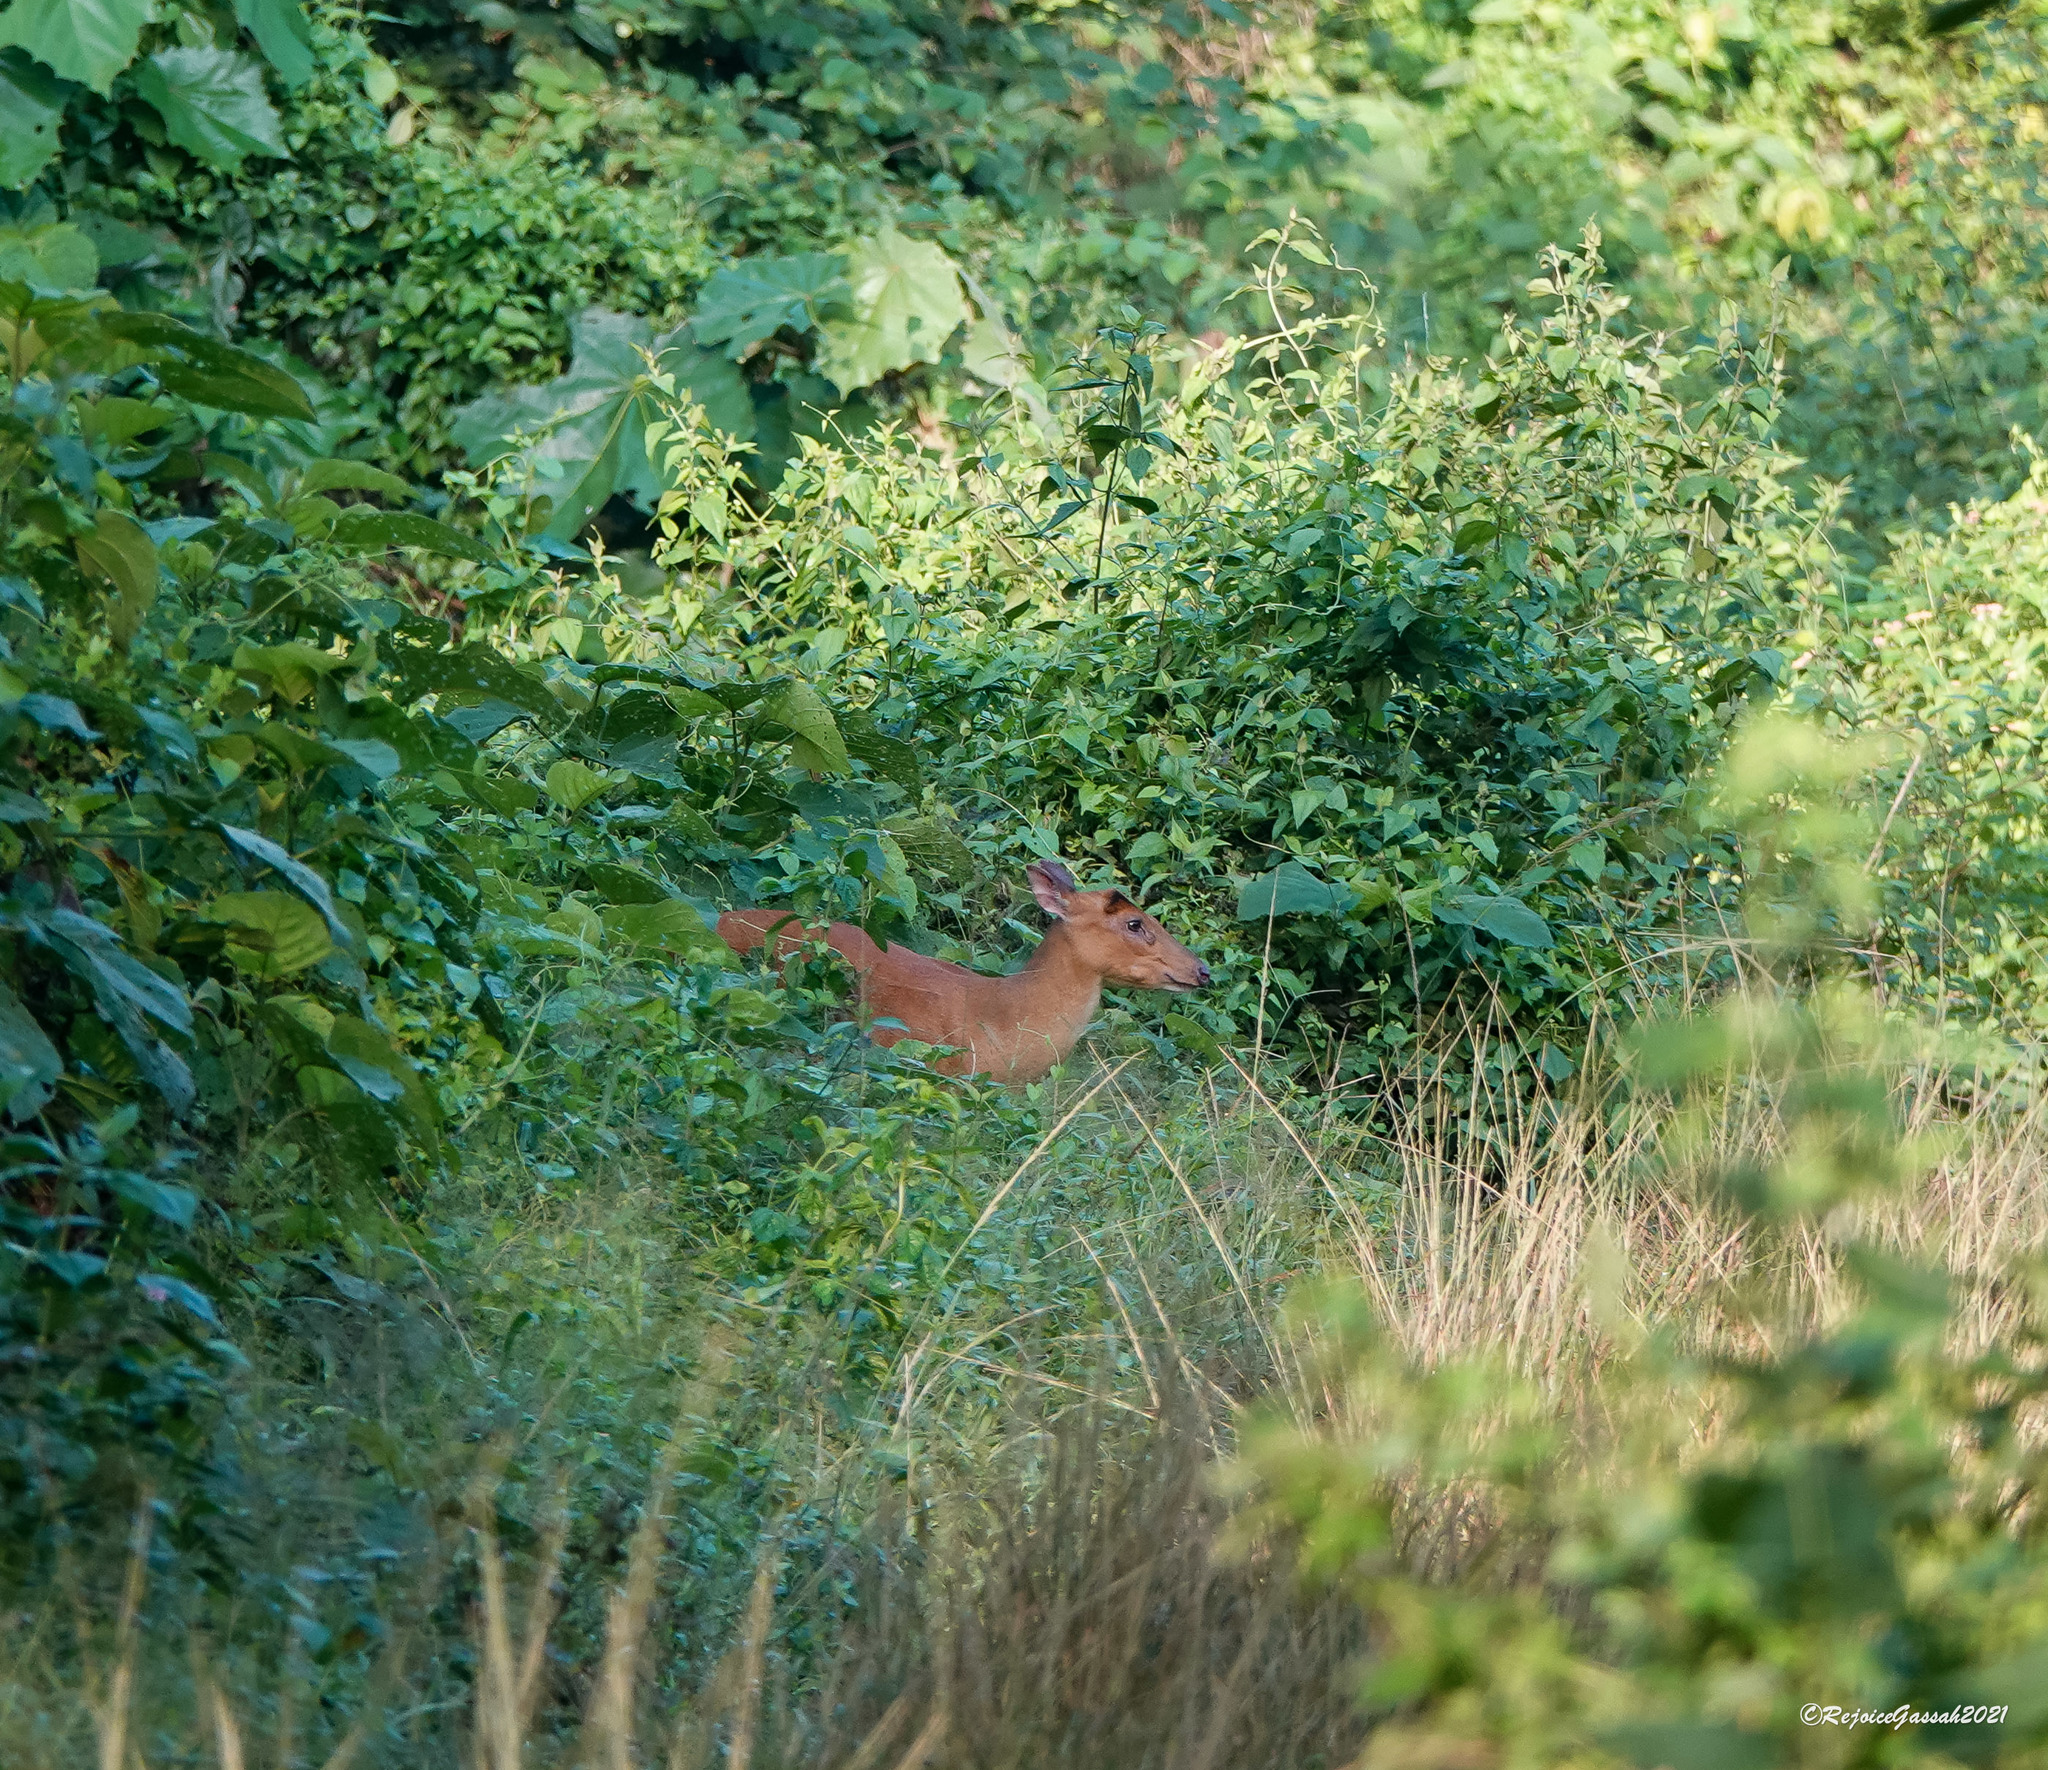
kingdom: Animalia
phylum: Chordata
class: Mammalia
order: Artiodactyla
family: Cervidae
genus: Muntiacus
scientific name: Muntiacus muntjak
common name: Indian muntjac
